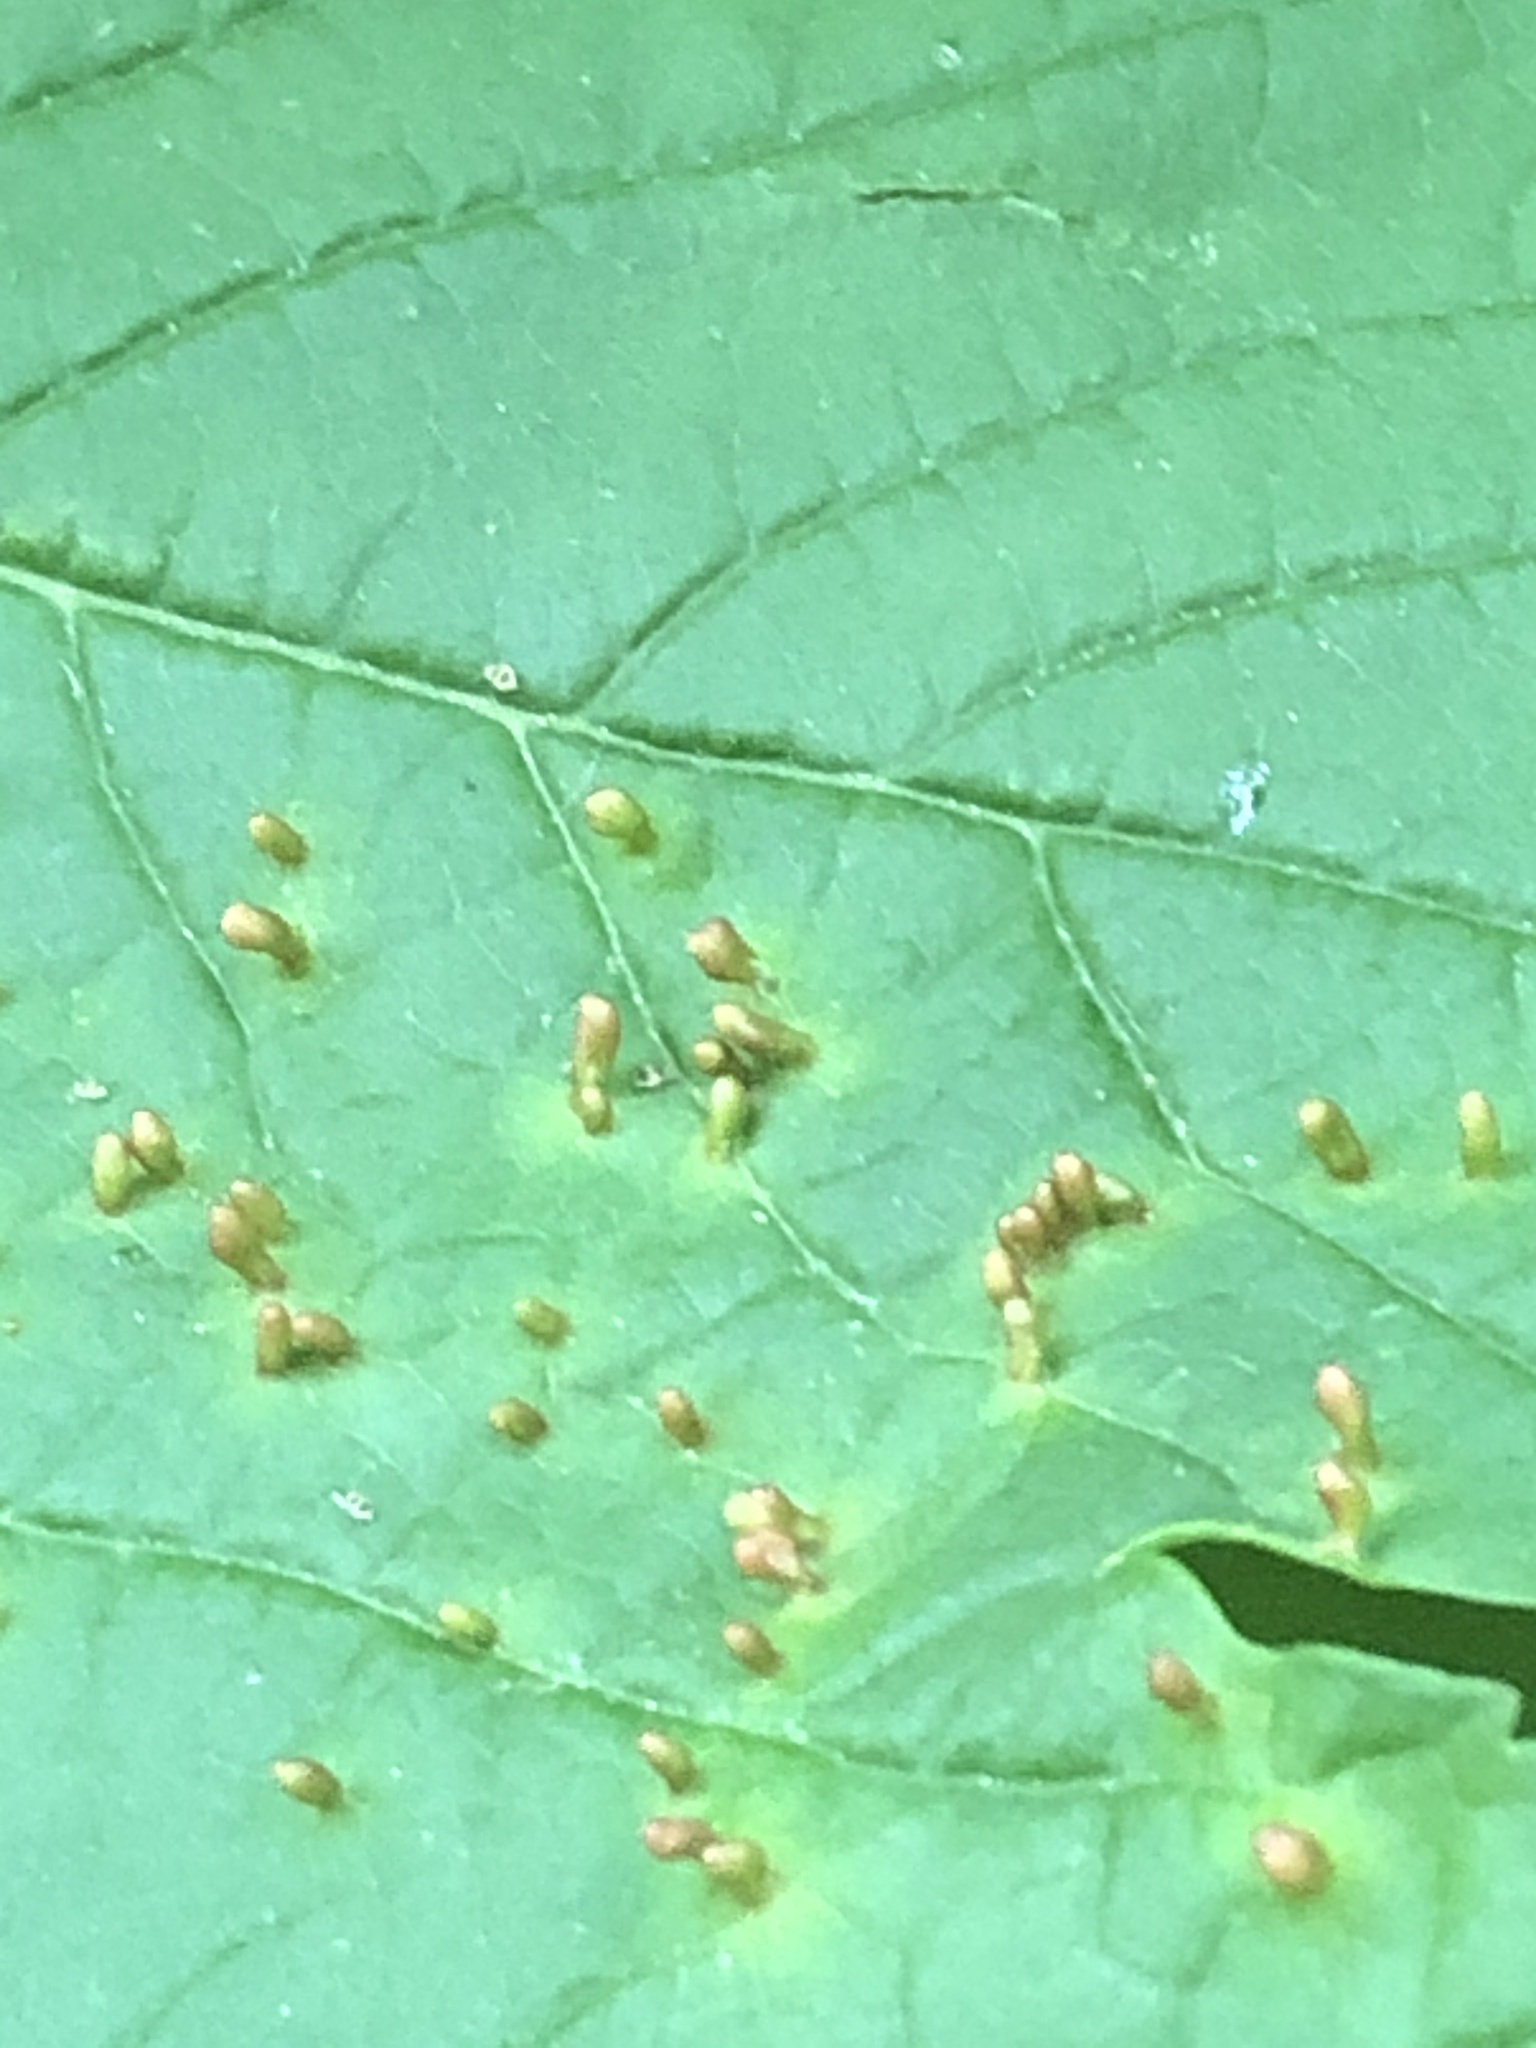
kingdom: Animalia
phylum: Arthropoda
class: Arachnida
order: Trombidiformes
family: Eriophyidae
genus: Aceria
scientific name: Aceria cephaloneus
